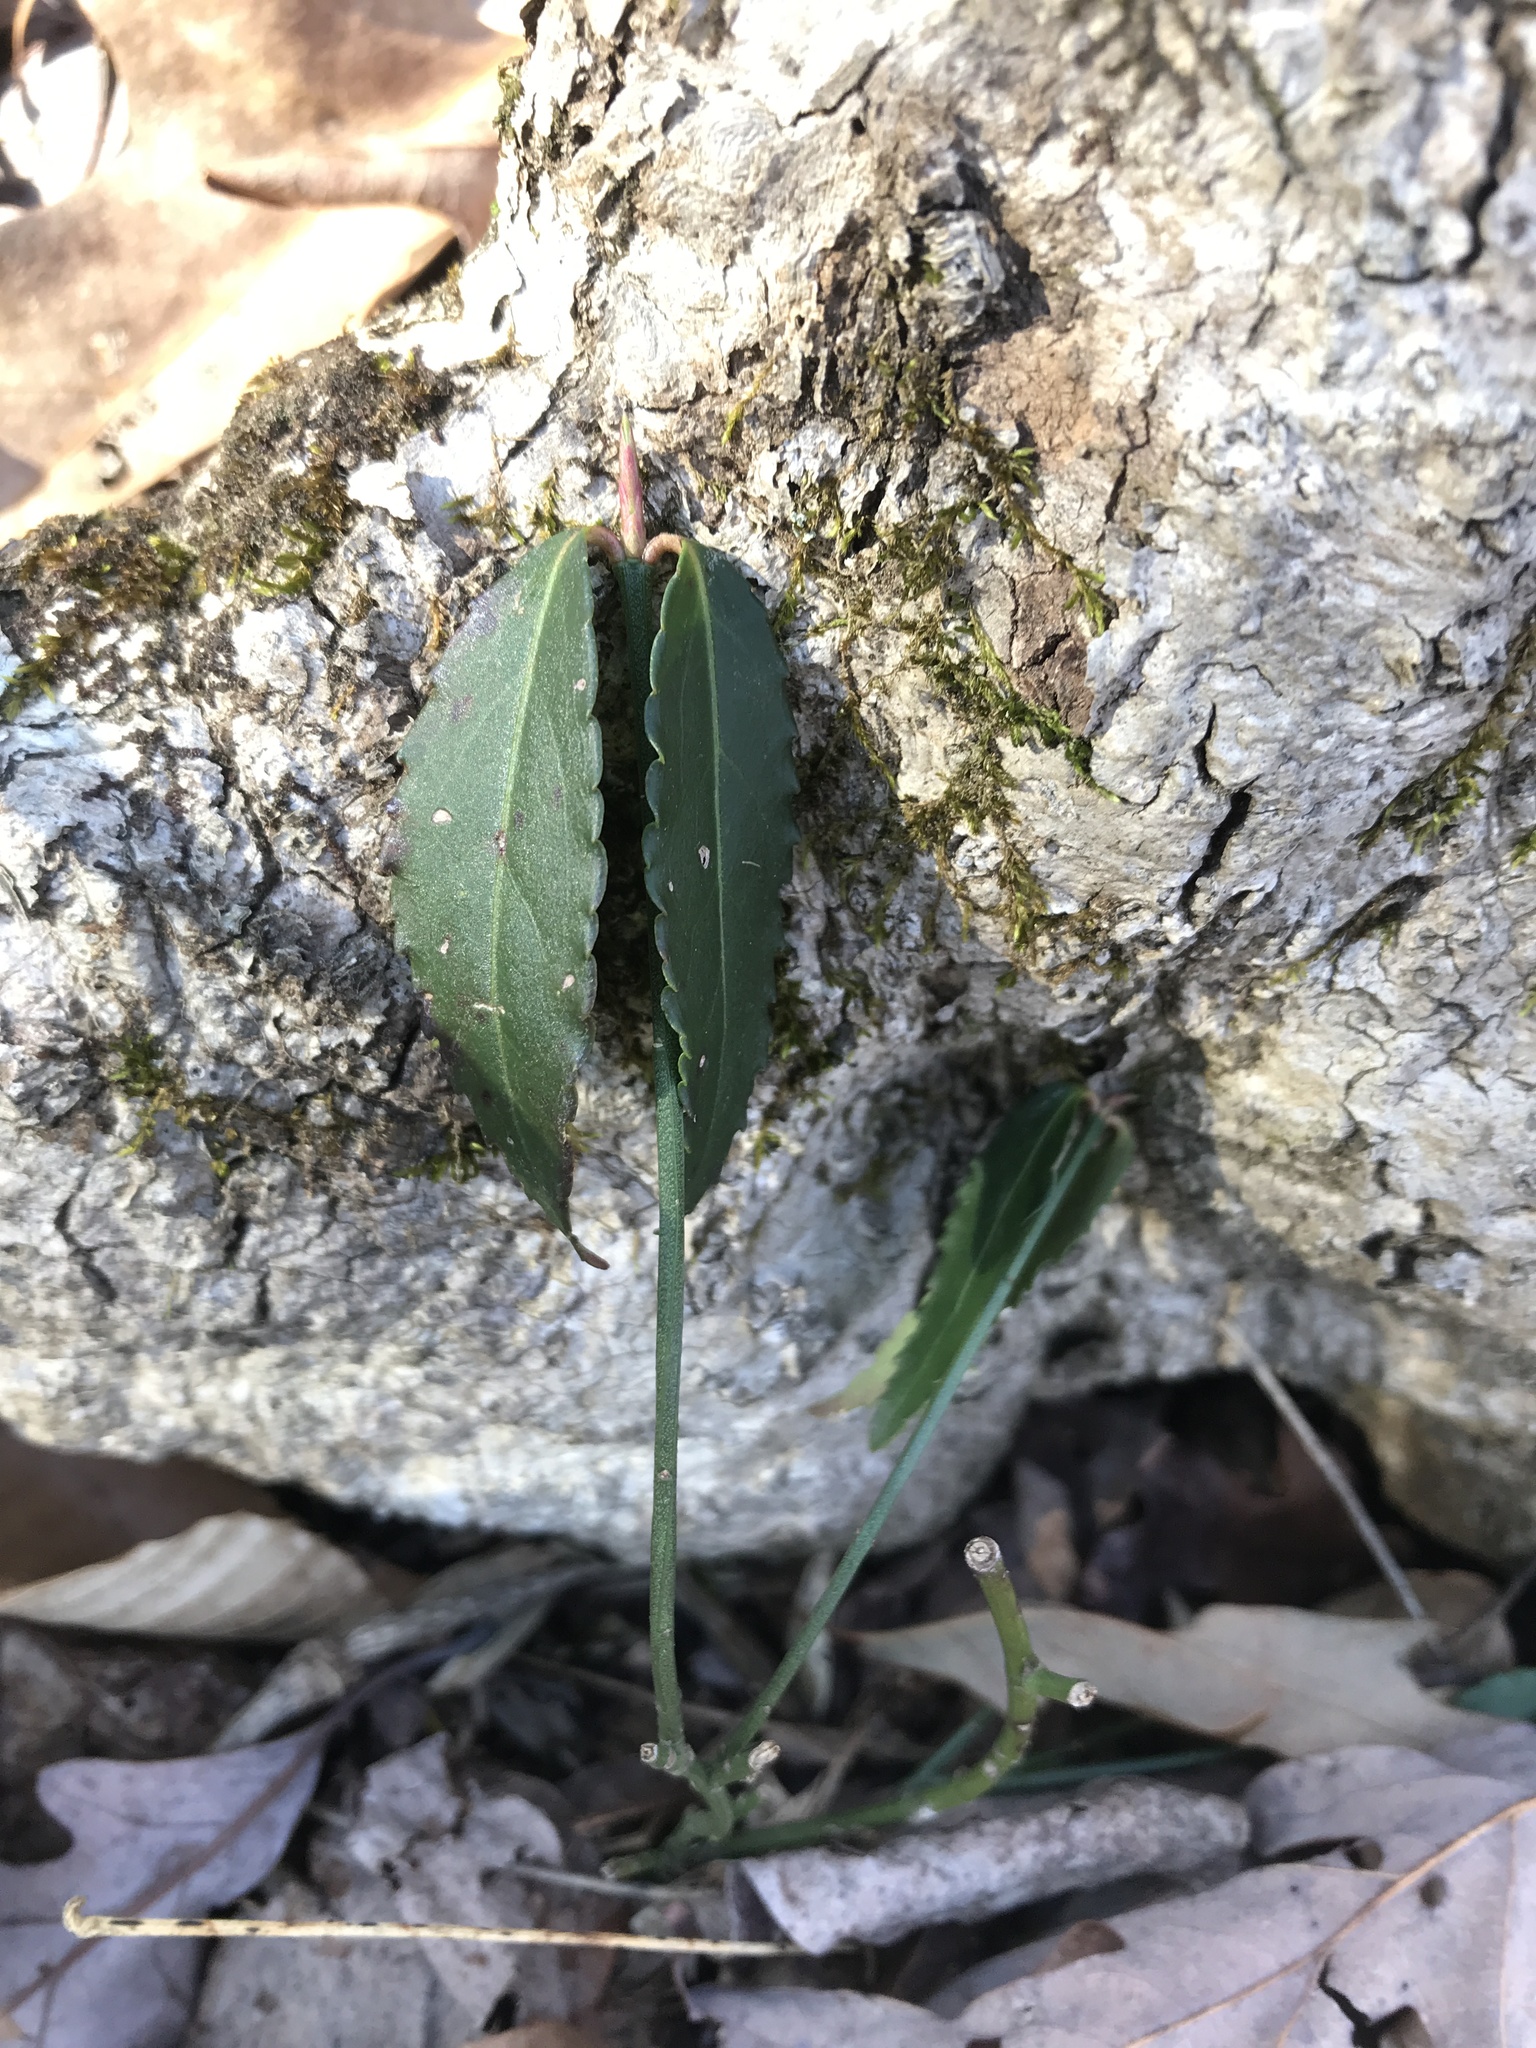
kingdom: Plantae
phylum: Tracheophyta
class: Magnoliopsida
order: Celastrales
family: Celastraceae
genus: Euonymus
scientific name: Euonymus fortunei
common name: Climbing euonymus
